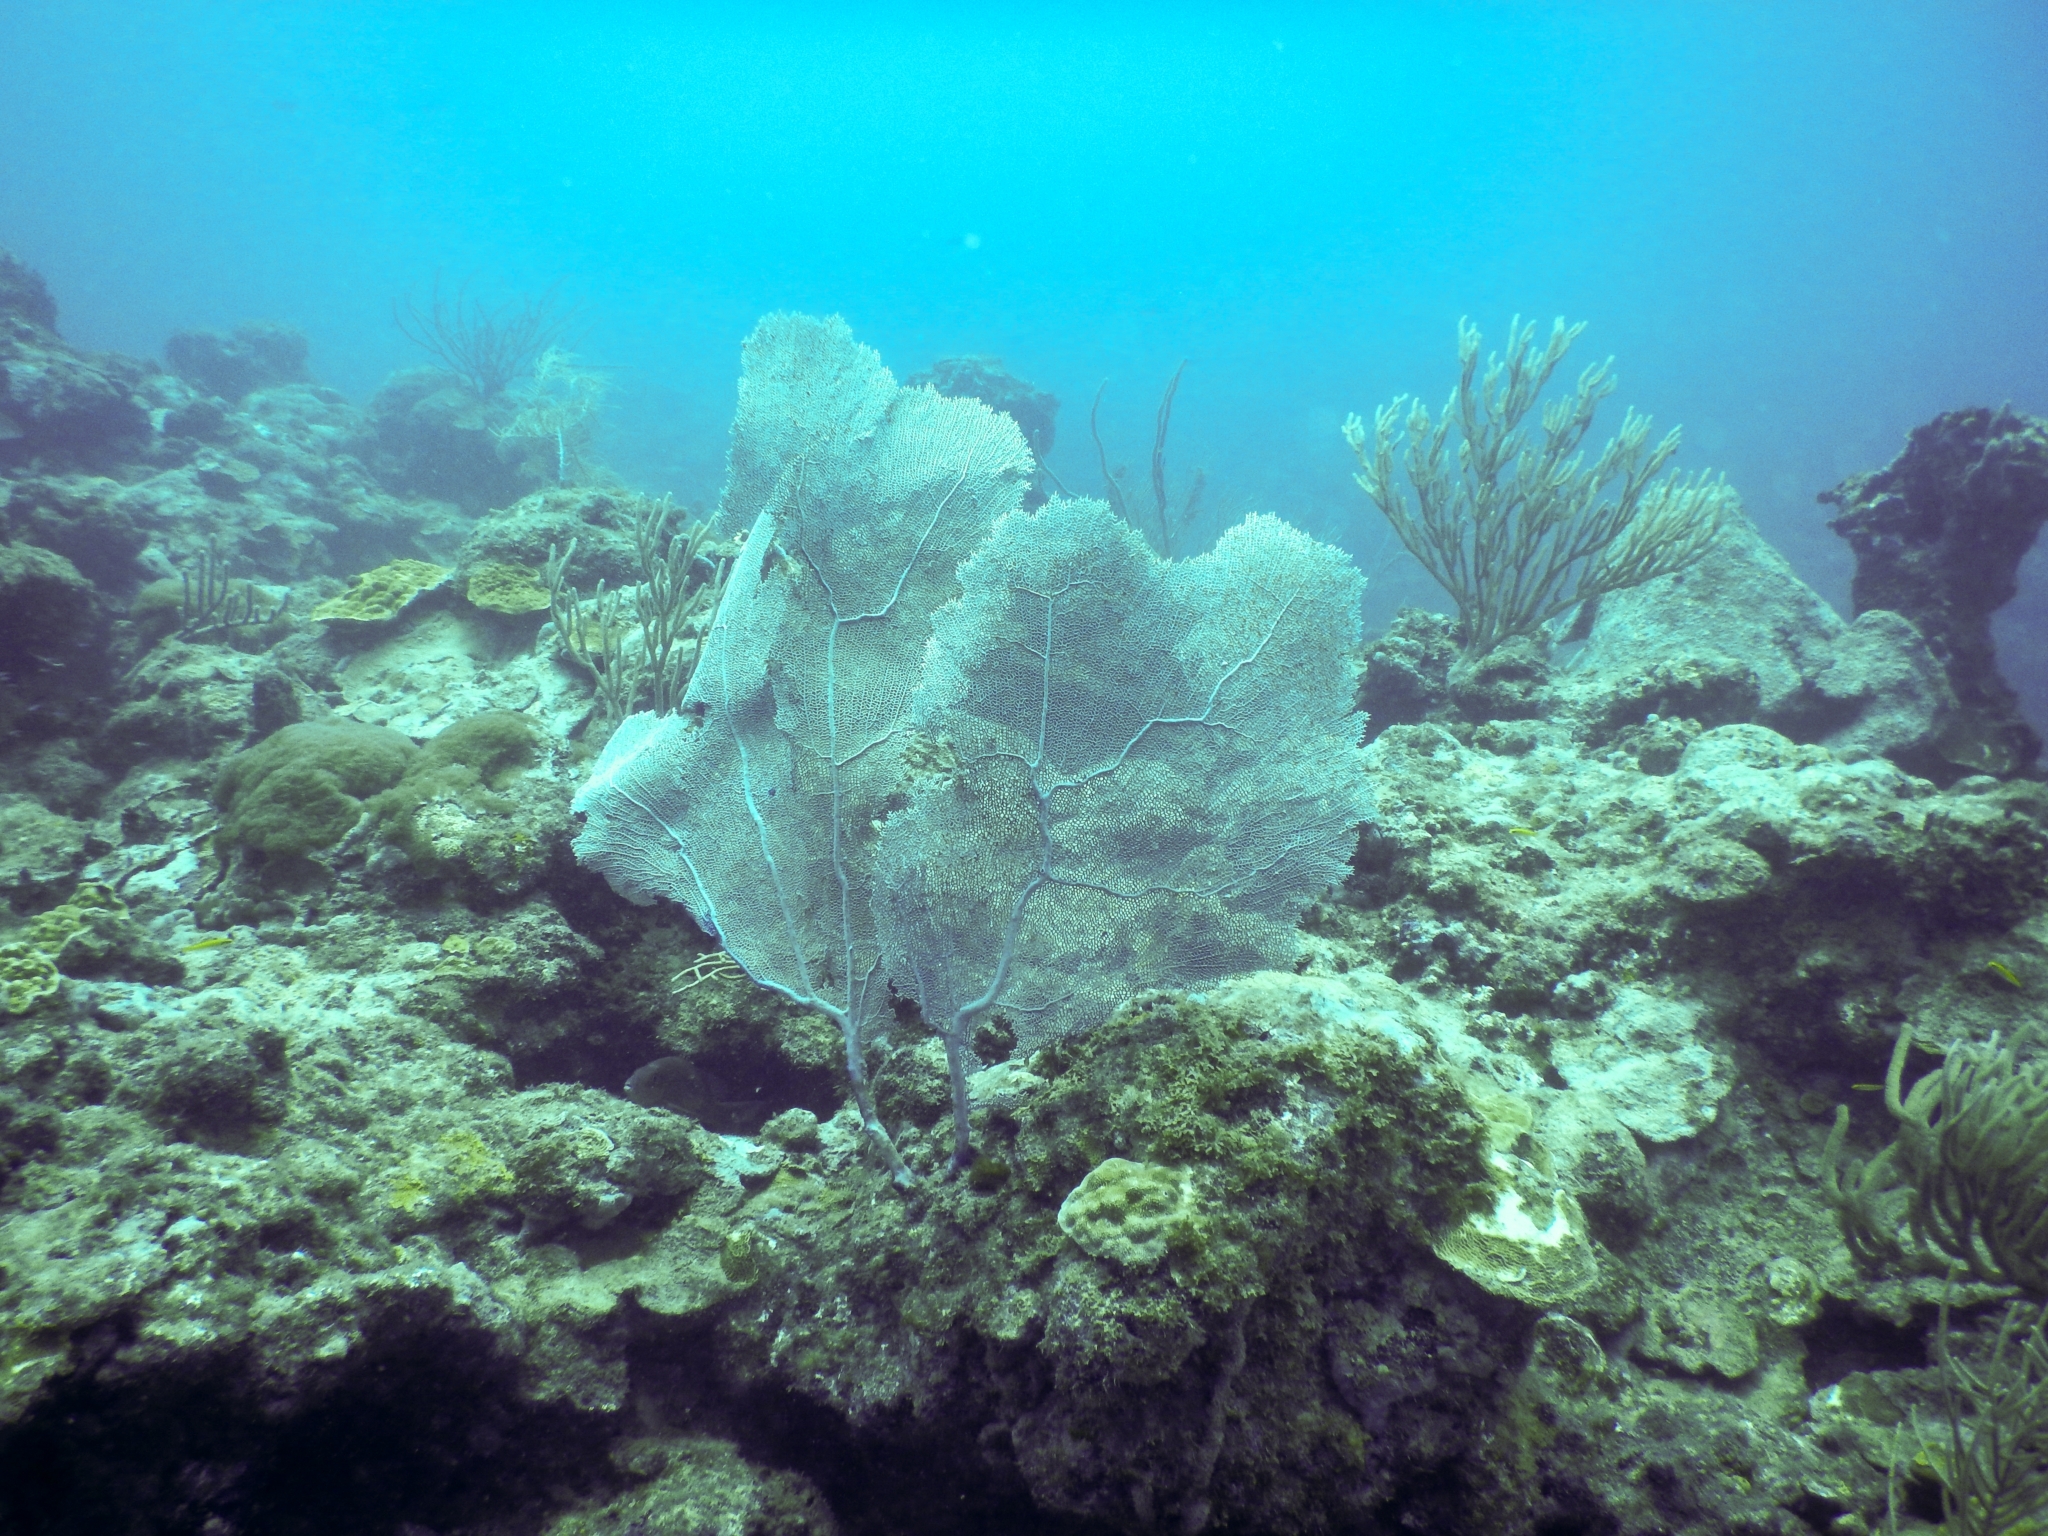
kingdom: Animalia
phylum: Cnidaria
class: Anthozoa
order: Malacalcyonacea
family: Gorgoniidae
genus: Gorgonia
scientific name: Gorgonia ventalina
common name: Common sea fan
